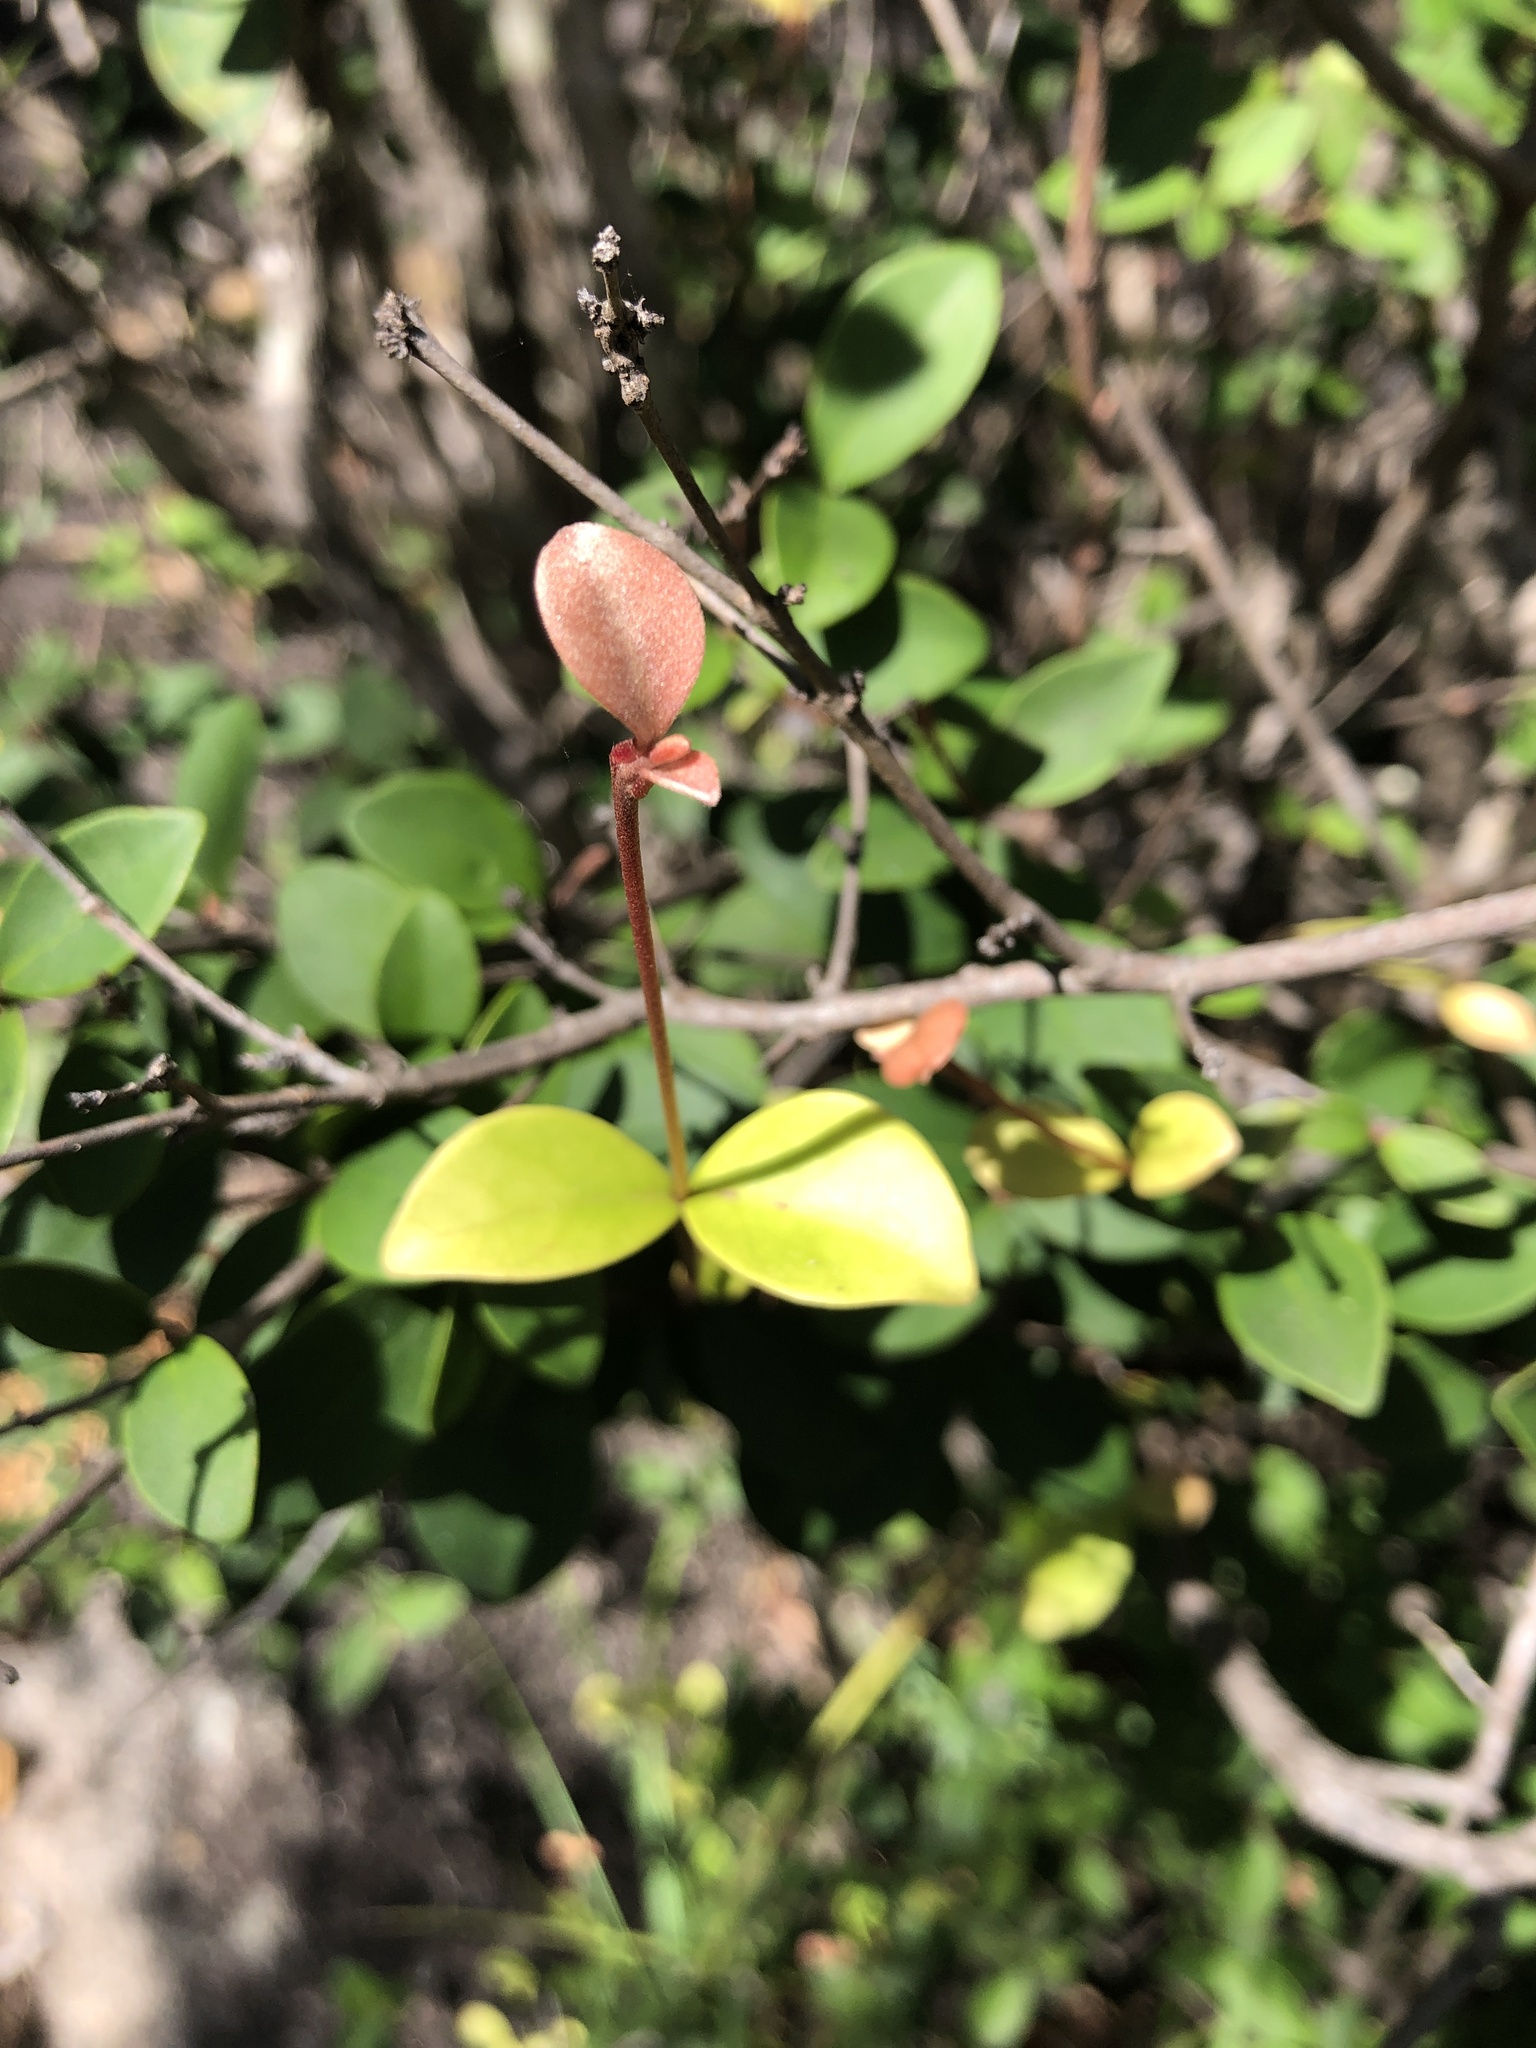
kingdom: Plantae
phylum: Tracheophyta
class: Magnoliopsida
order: Myrtales
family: Myrtaceae
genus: Eugenia
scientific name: Eugenia reinwardtiana
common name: Cedar bay-cherry
